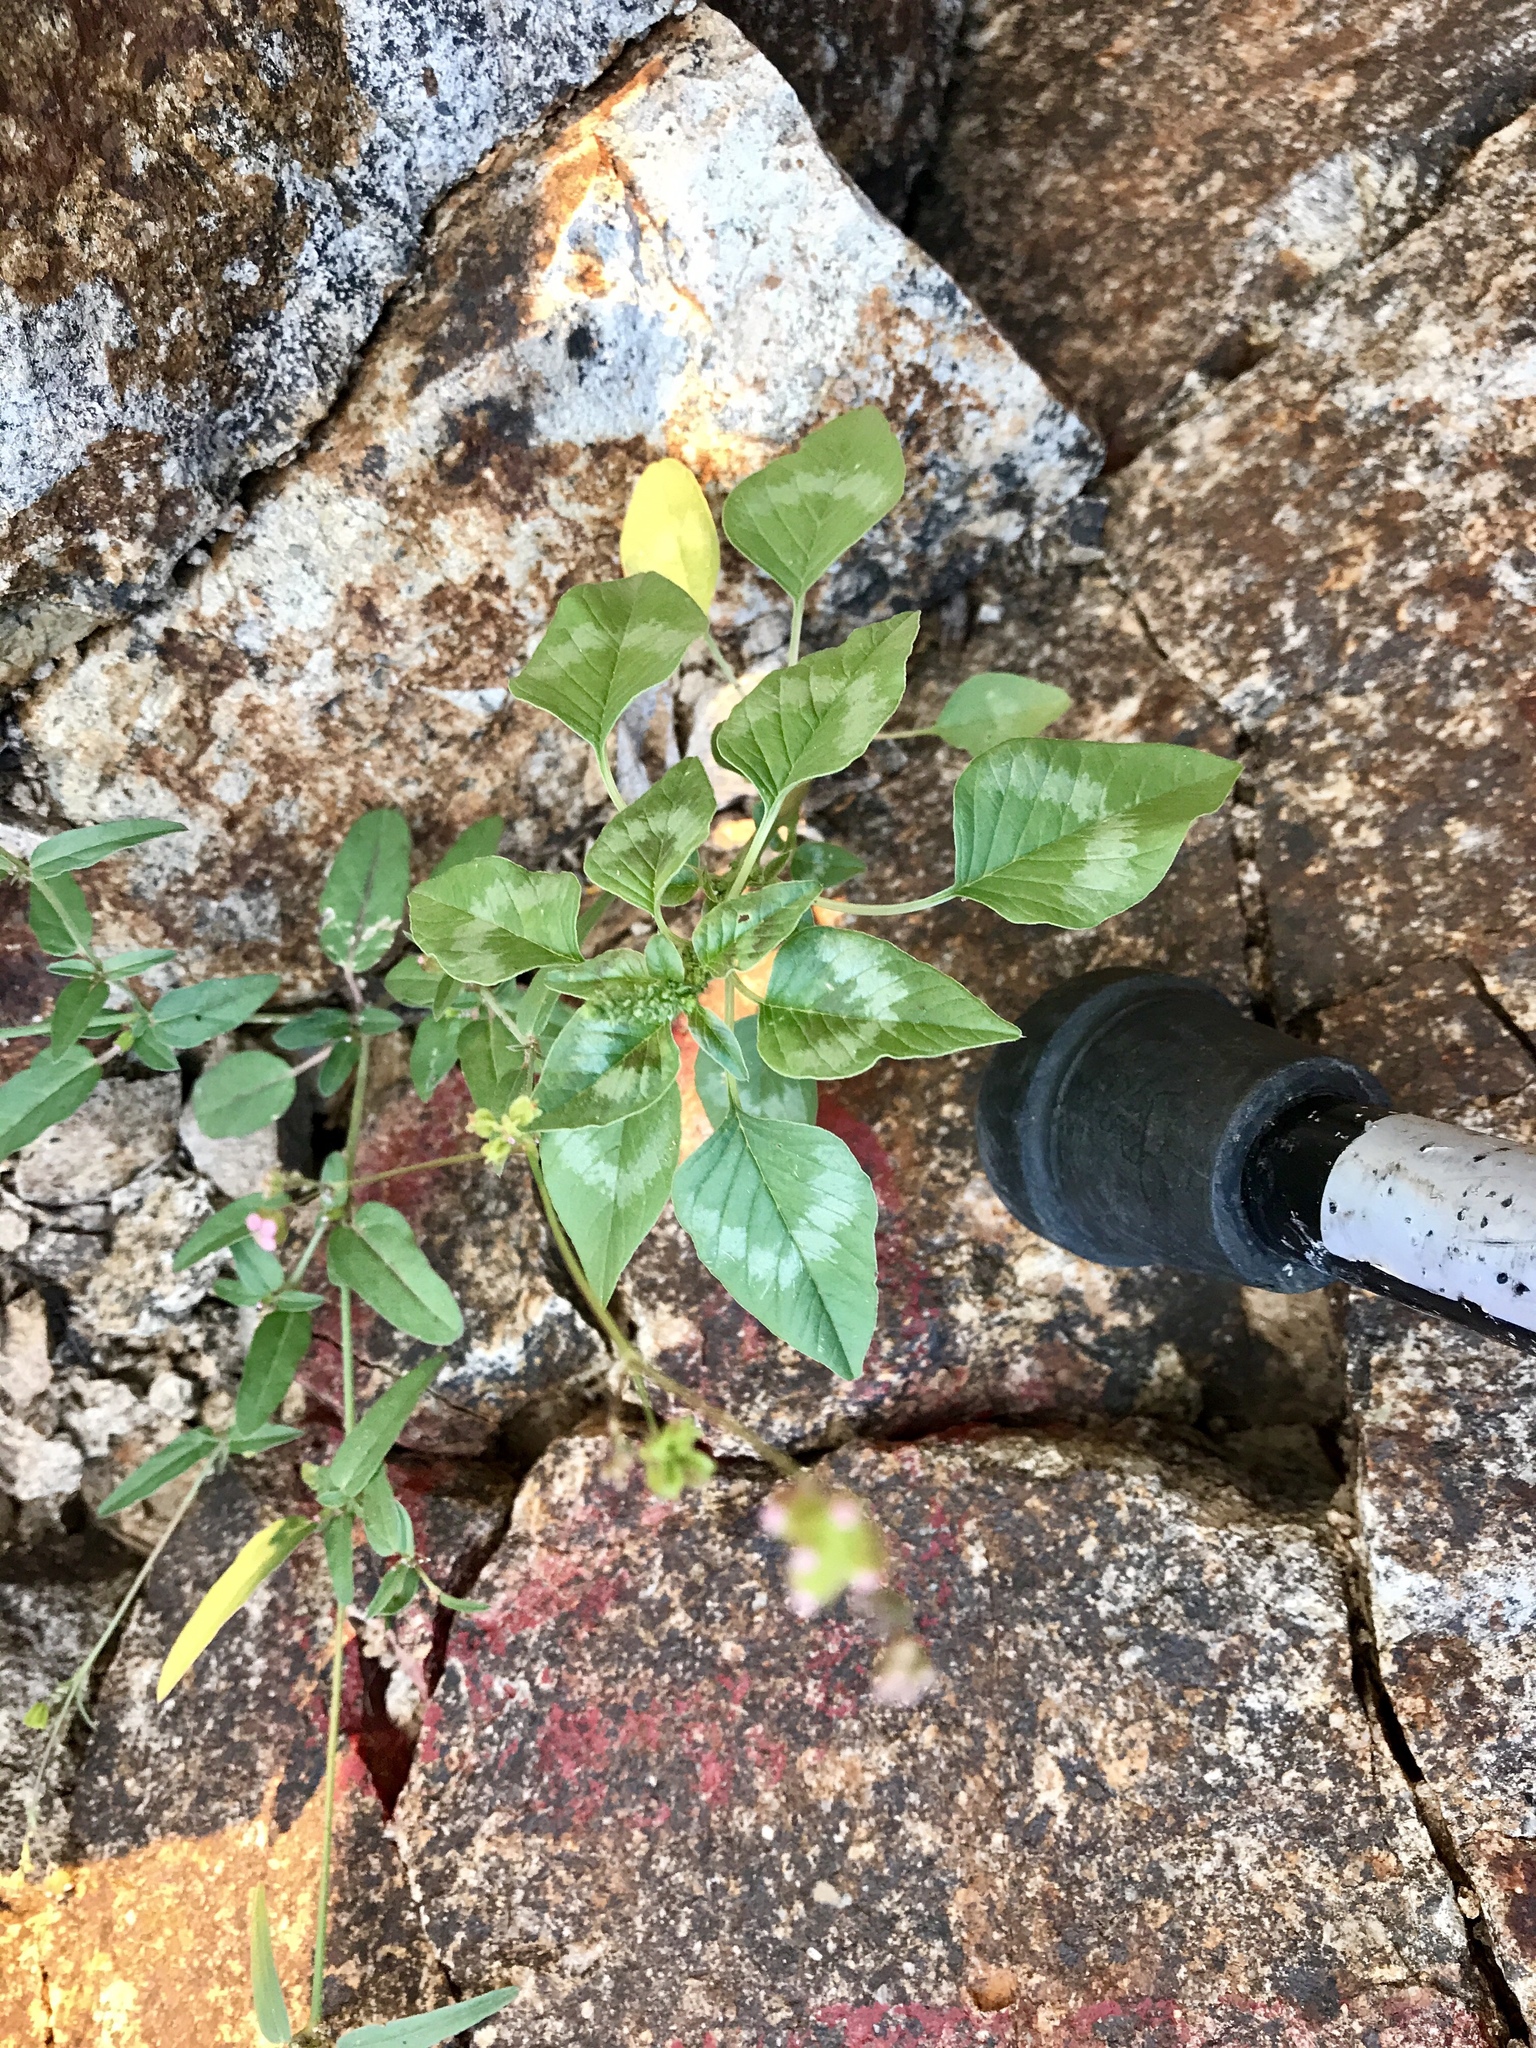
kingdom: Plantae
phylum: Tracheophyta
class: Magnoliopsida
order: Caryophyllales
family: Amaranthaceae
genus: Amaranthus
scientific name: Amaranthus palmeri
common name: Dioecious amaranth
